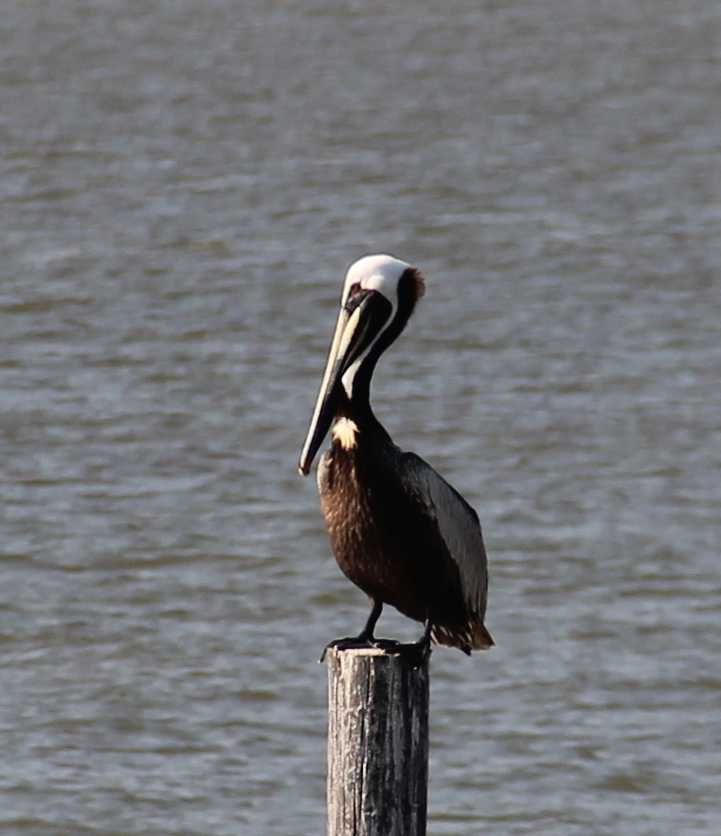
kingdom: Animalia
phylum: Chordata
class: Aves
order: Pelecaniformes
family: Pelecanidae
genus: Pelecanus
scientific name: Pelecanus occidentalis
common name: Brown pelican
